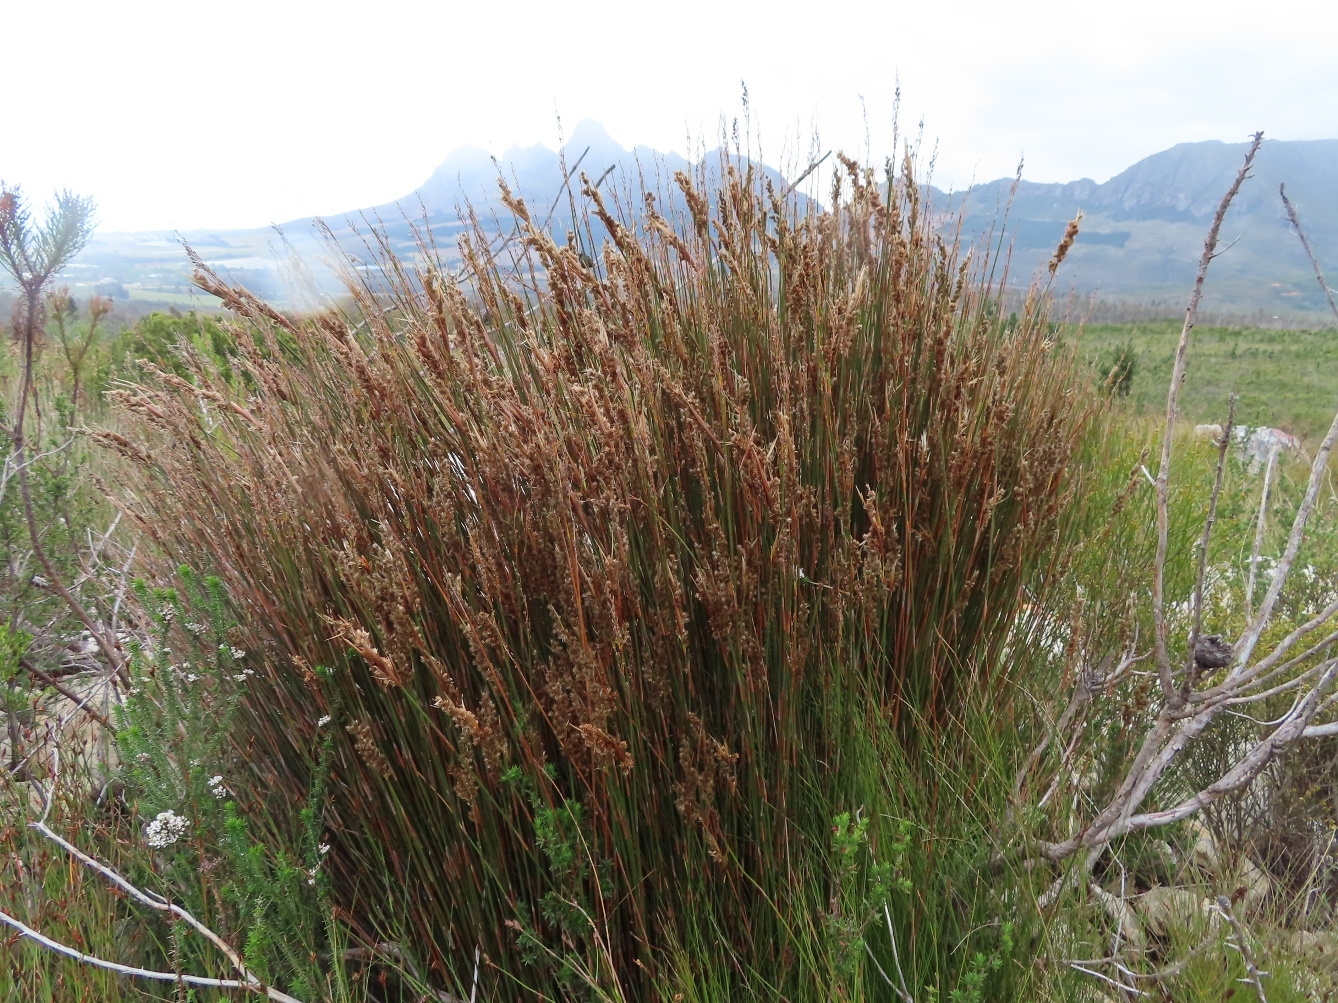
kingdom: Plantae
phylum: Tracheophyta
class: Liliopsida
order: Poales
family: Restionaceae
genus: Hypodiscus
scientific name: Hypodiscus argenteus
